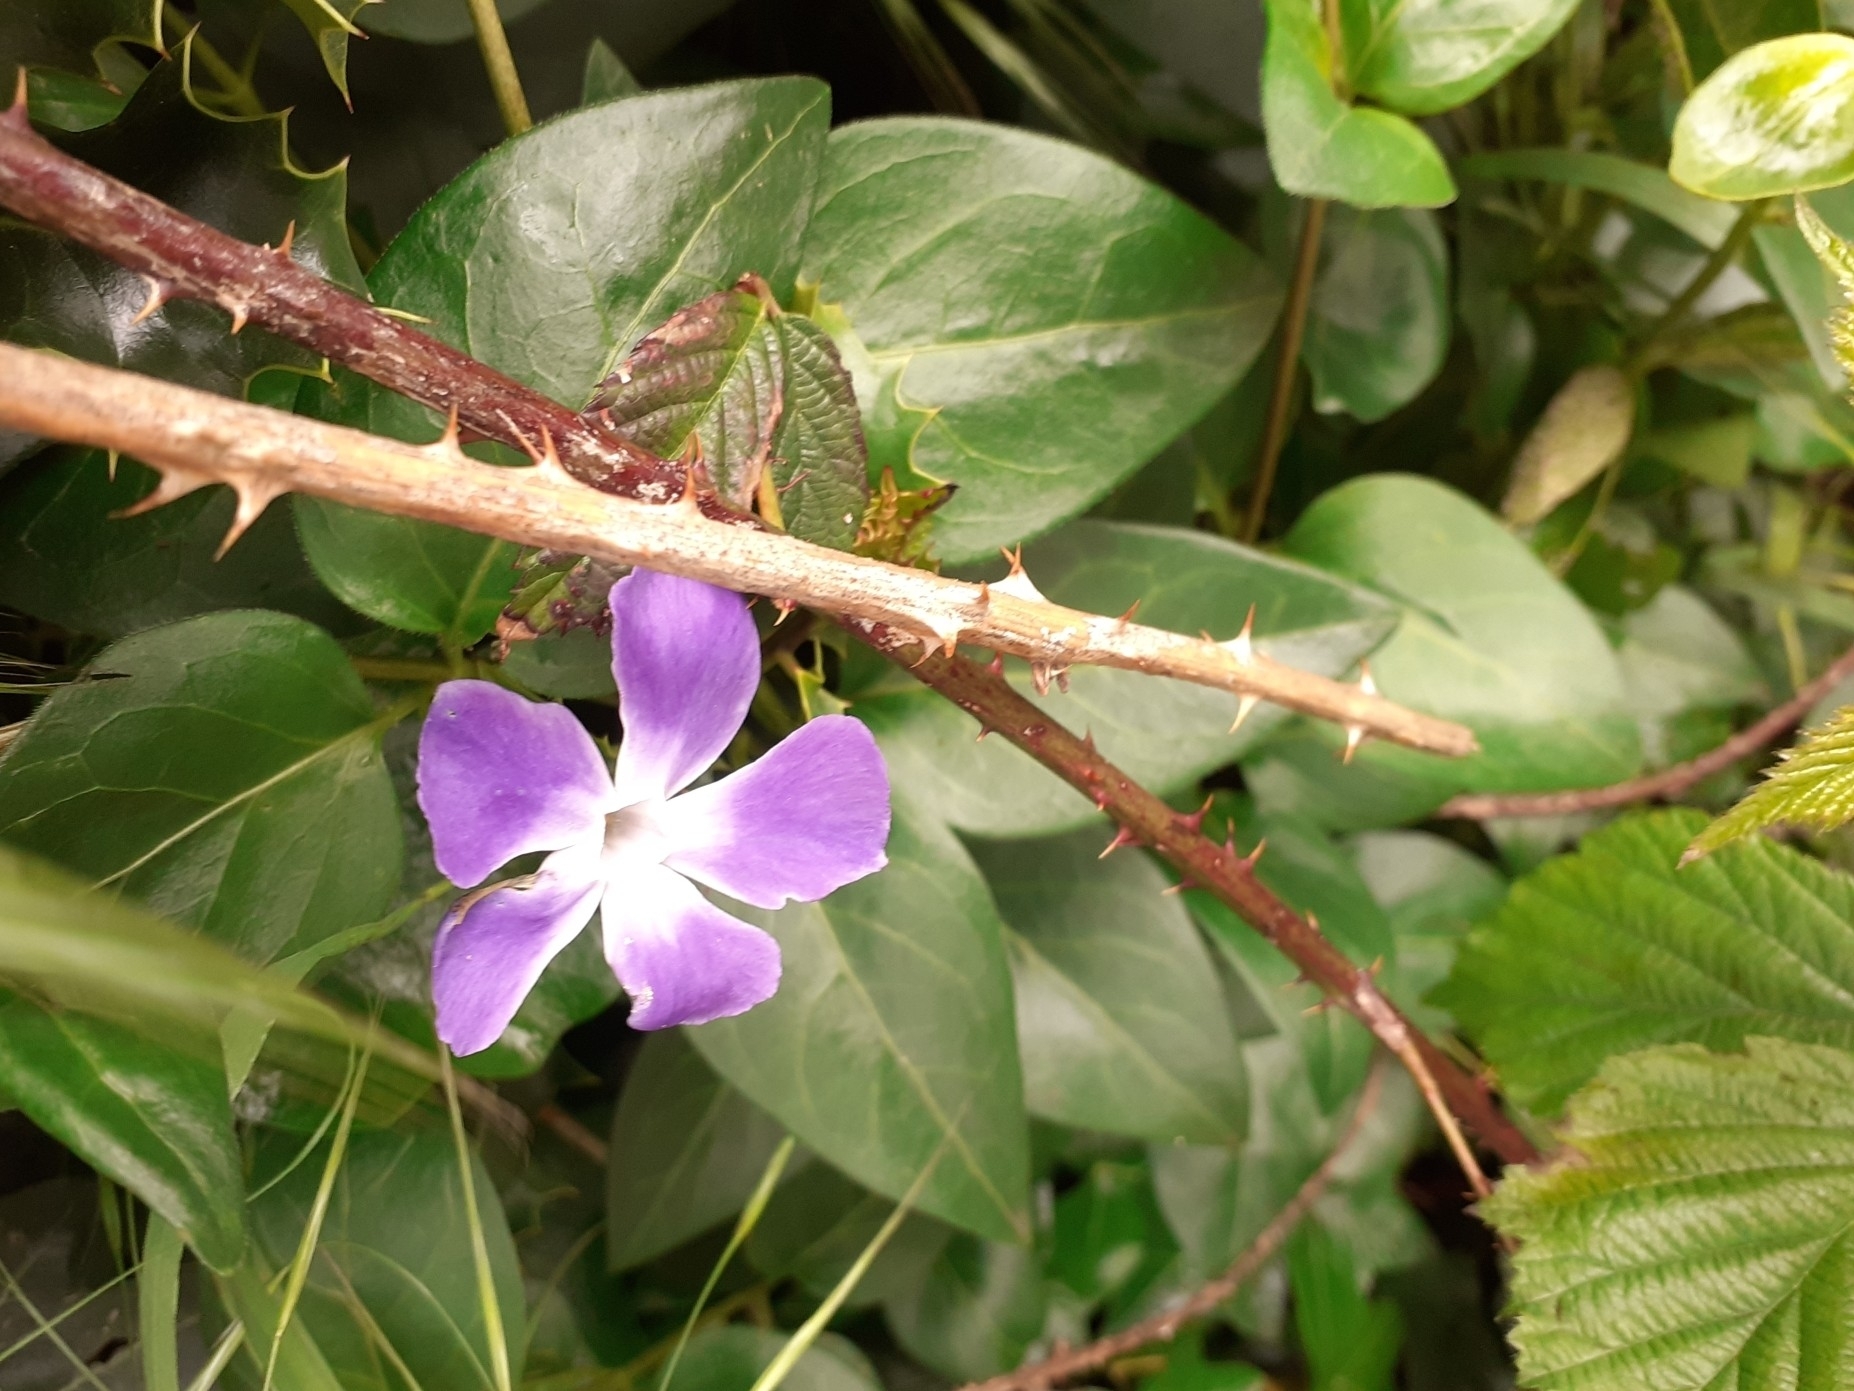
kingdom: Plantae
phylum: Tracheophyta
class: Magnoliopsida
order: Gentianales
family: Apocynaceae
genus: Vinca
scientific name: Vinca major
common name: Greater periwinkle
